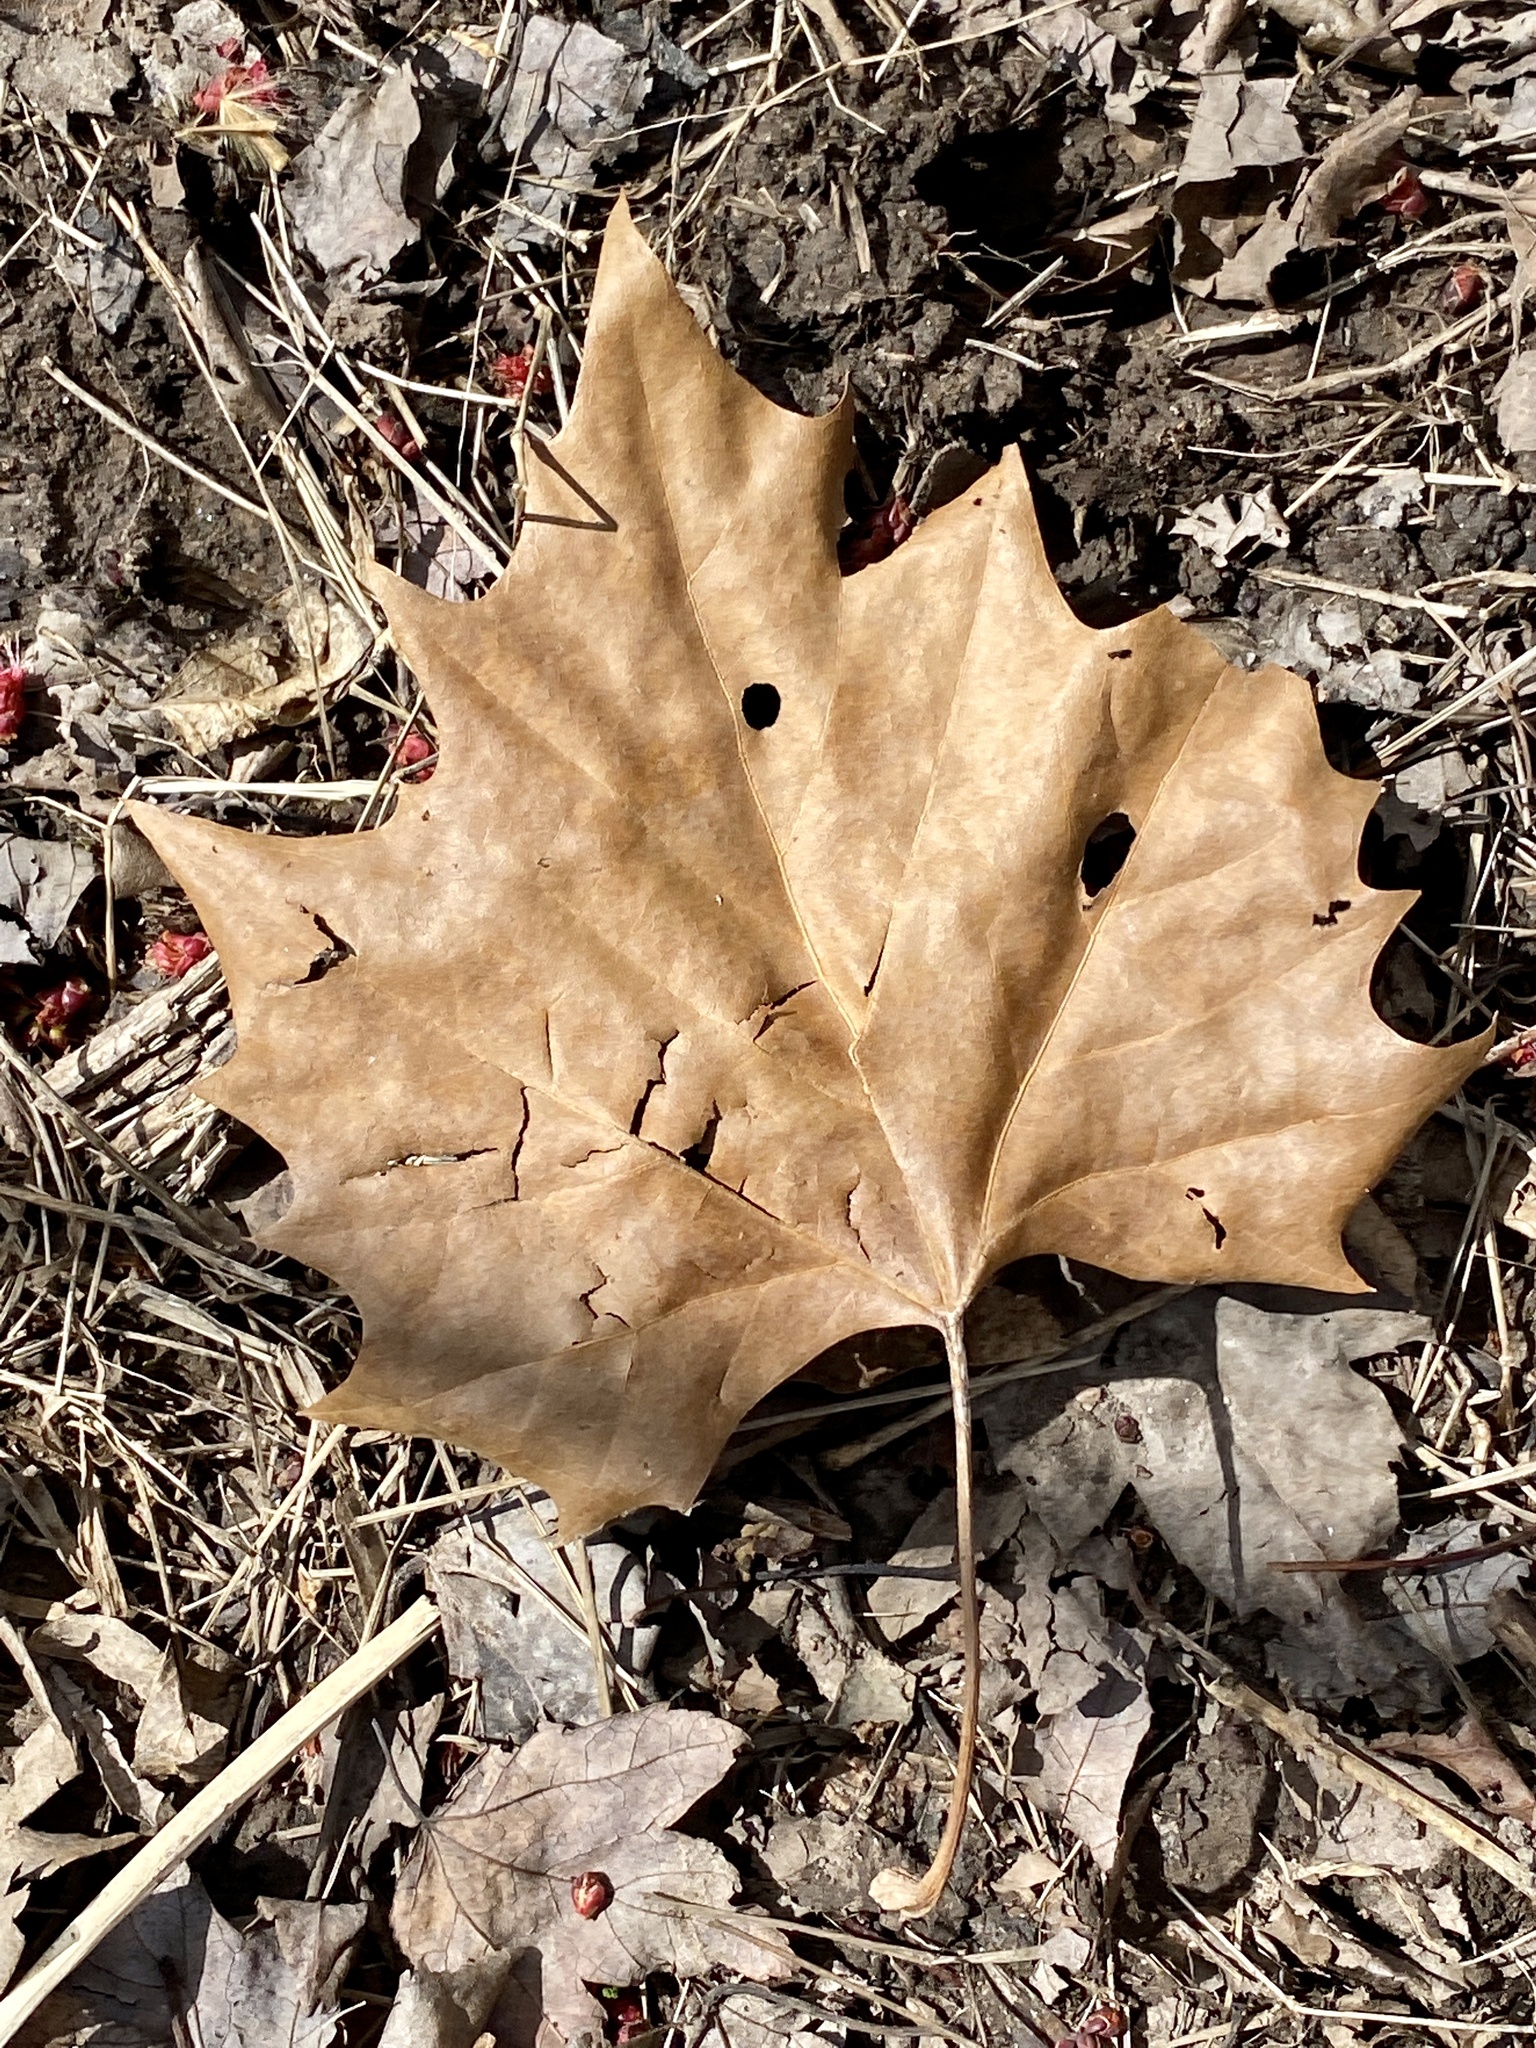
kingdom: Plantae
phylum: Tracheophyta
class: Magnoliopsida
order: Proteales
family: Platanaceae
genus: Platanus
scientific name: Platanus occidentalis
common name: American sycamore
